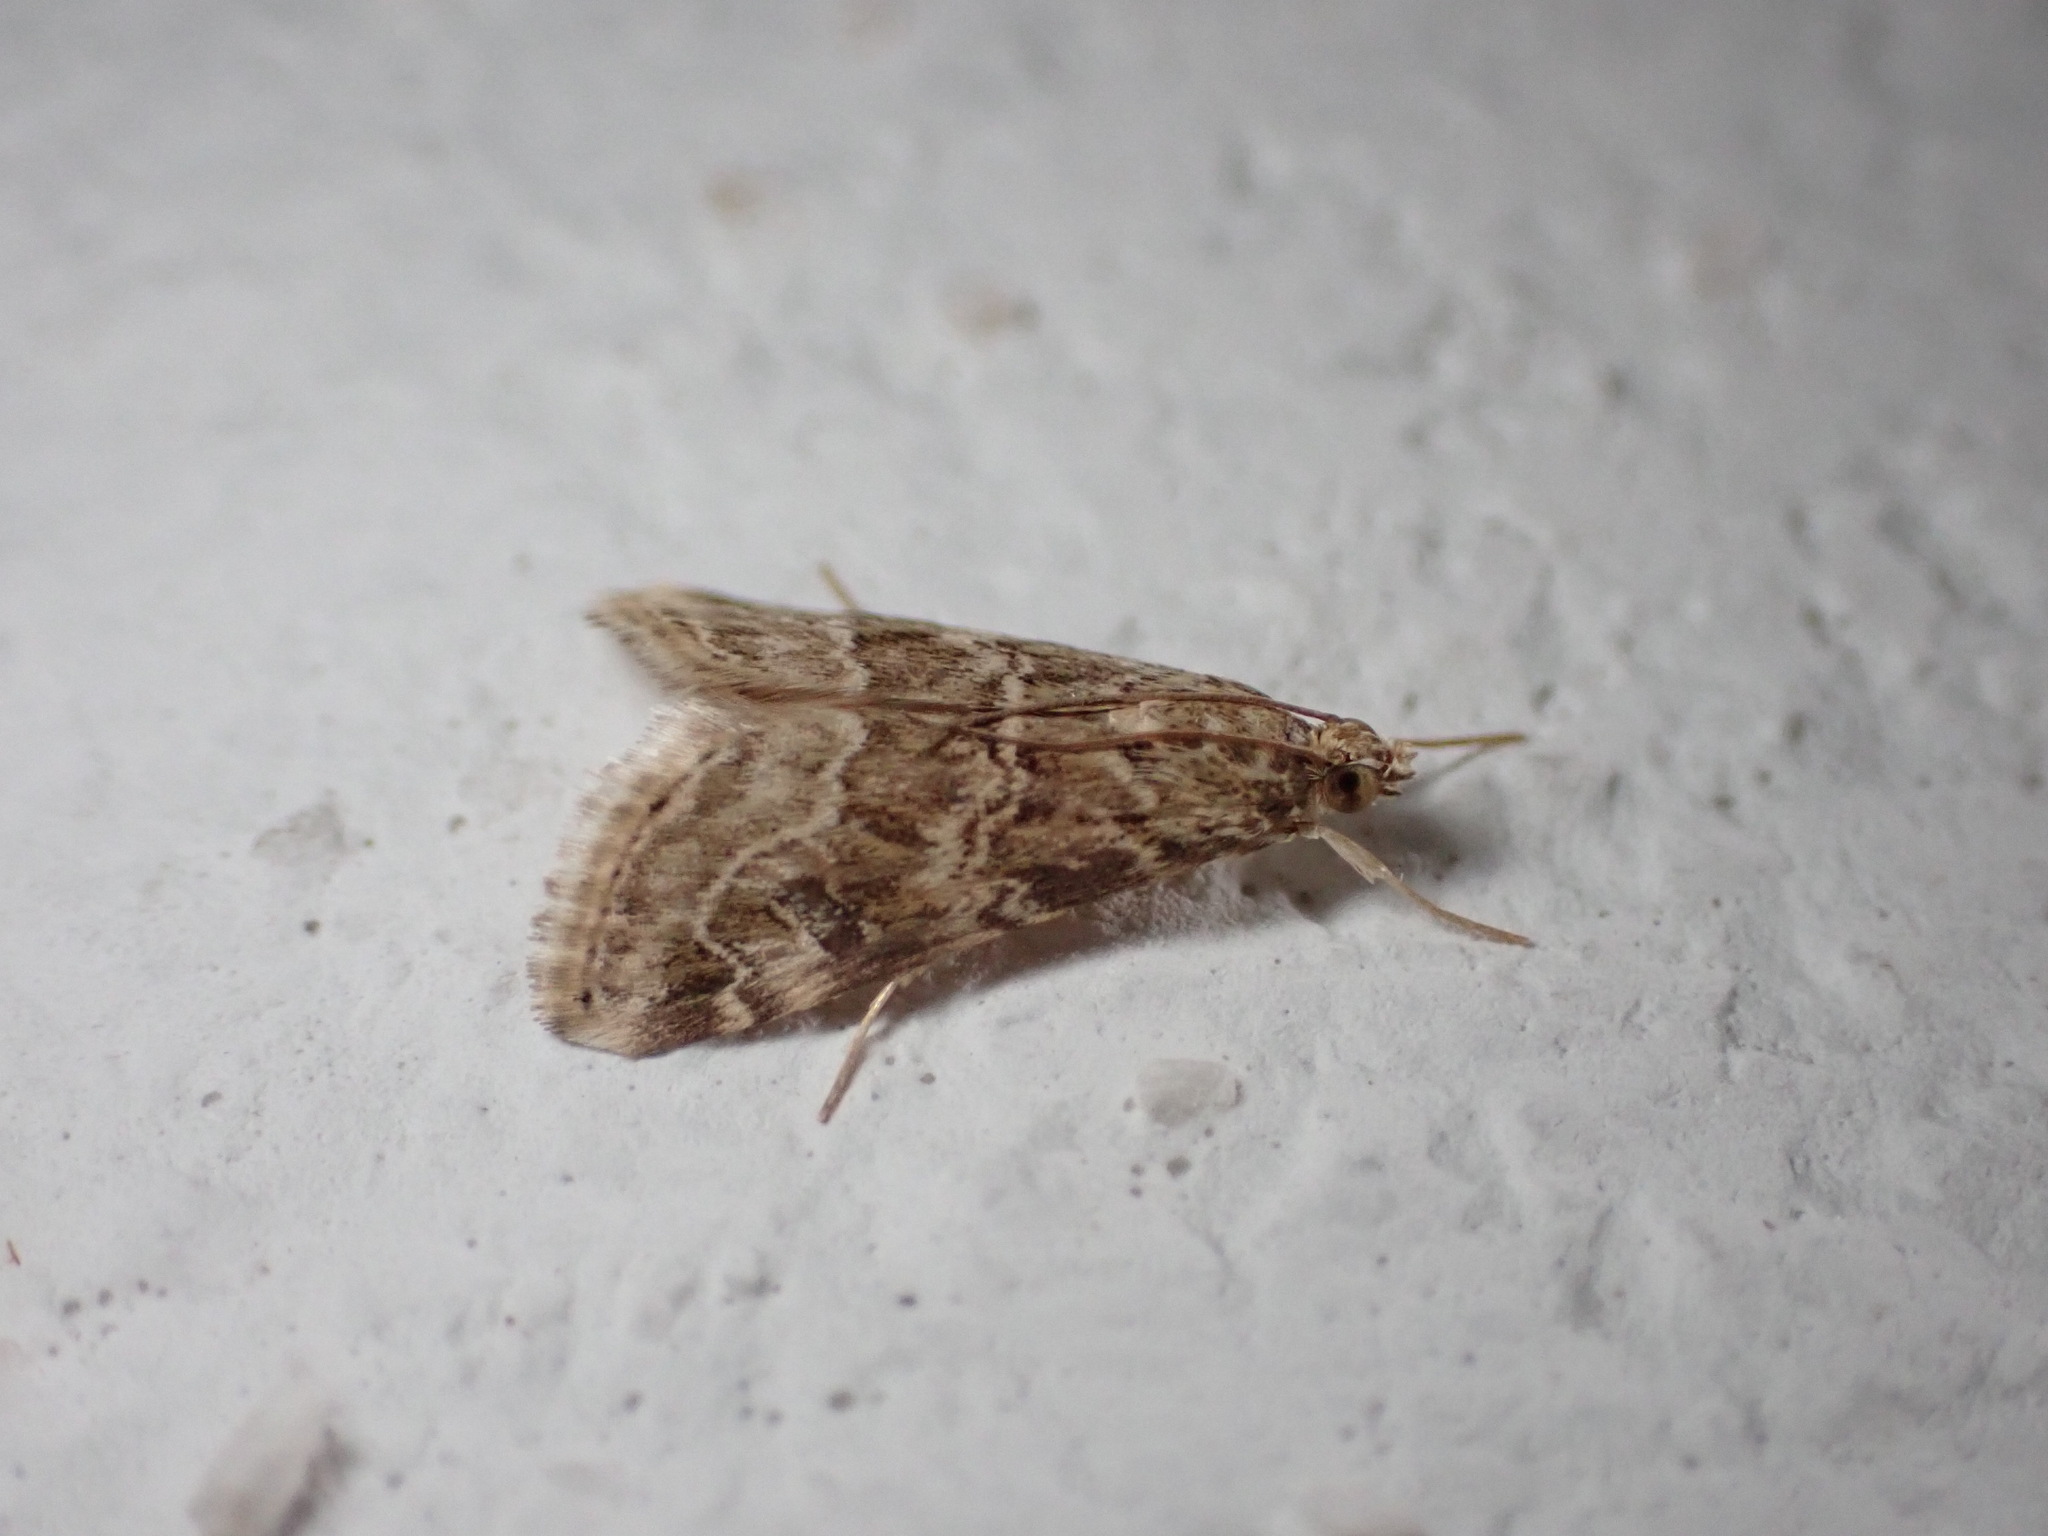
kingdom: Animalia
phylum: Arthropoda
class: Insecta
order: Lepidoptera
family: Crambidae
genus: Hellula
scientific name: Hellula undalis
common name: Cabbage webworm
